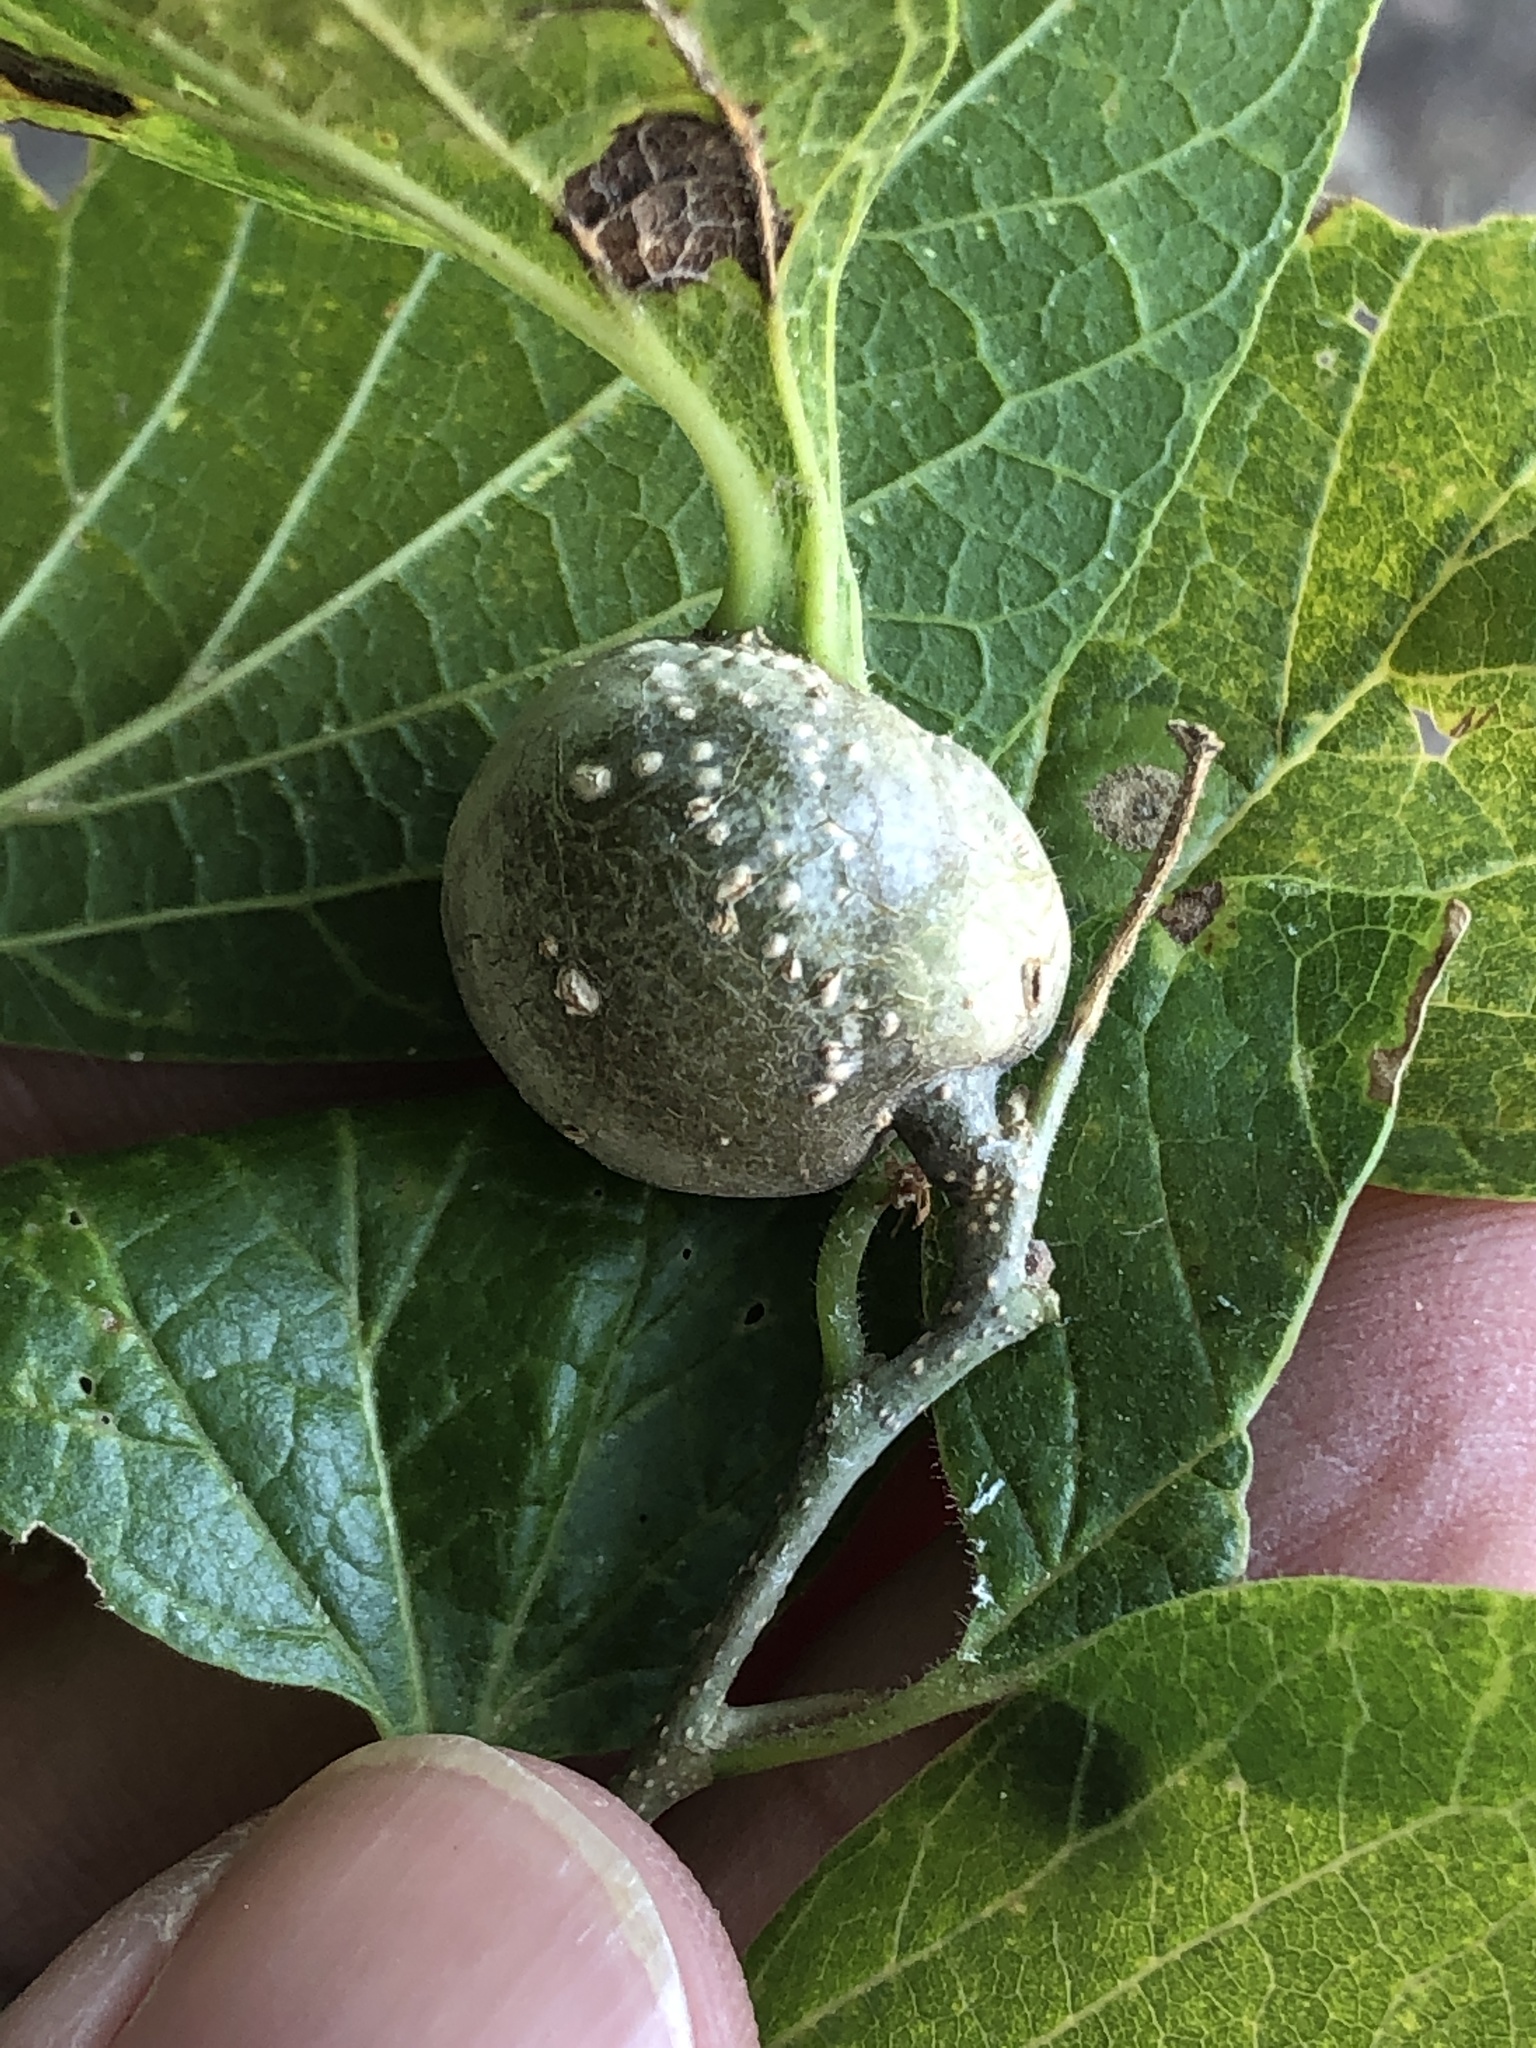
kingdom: Animalia
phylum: Arthropoda
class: Insecta
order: Hemiptera
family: Aphalaridae
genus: Pachypsylla
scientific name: Pachypsylla venusta
